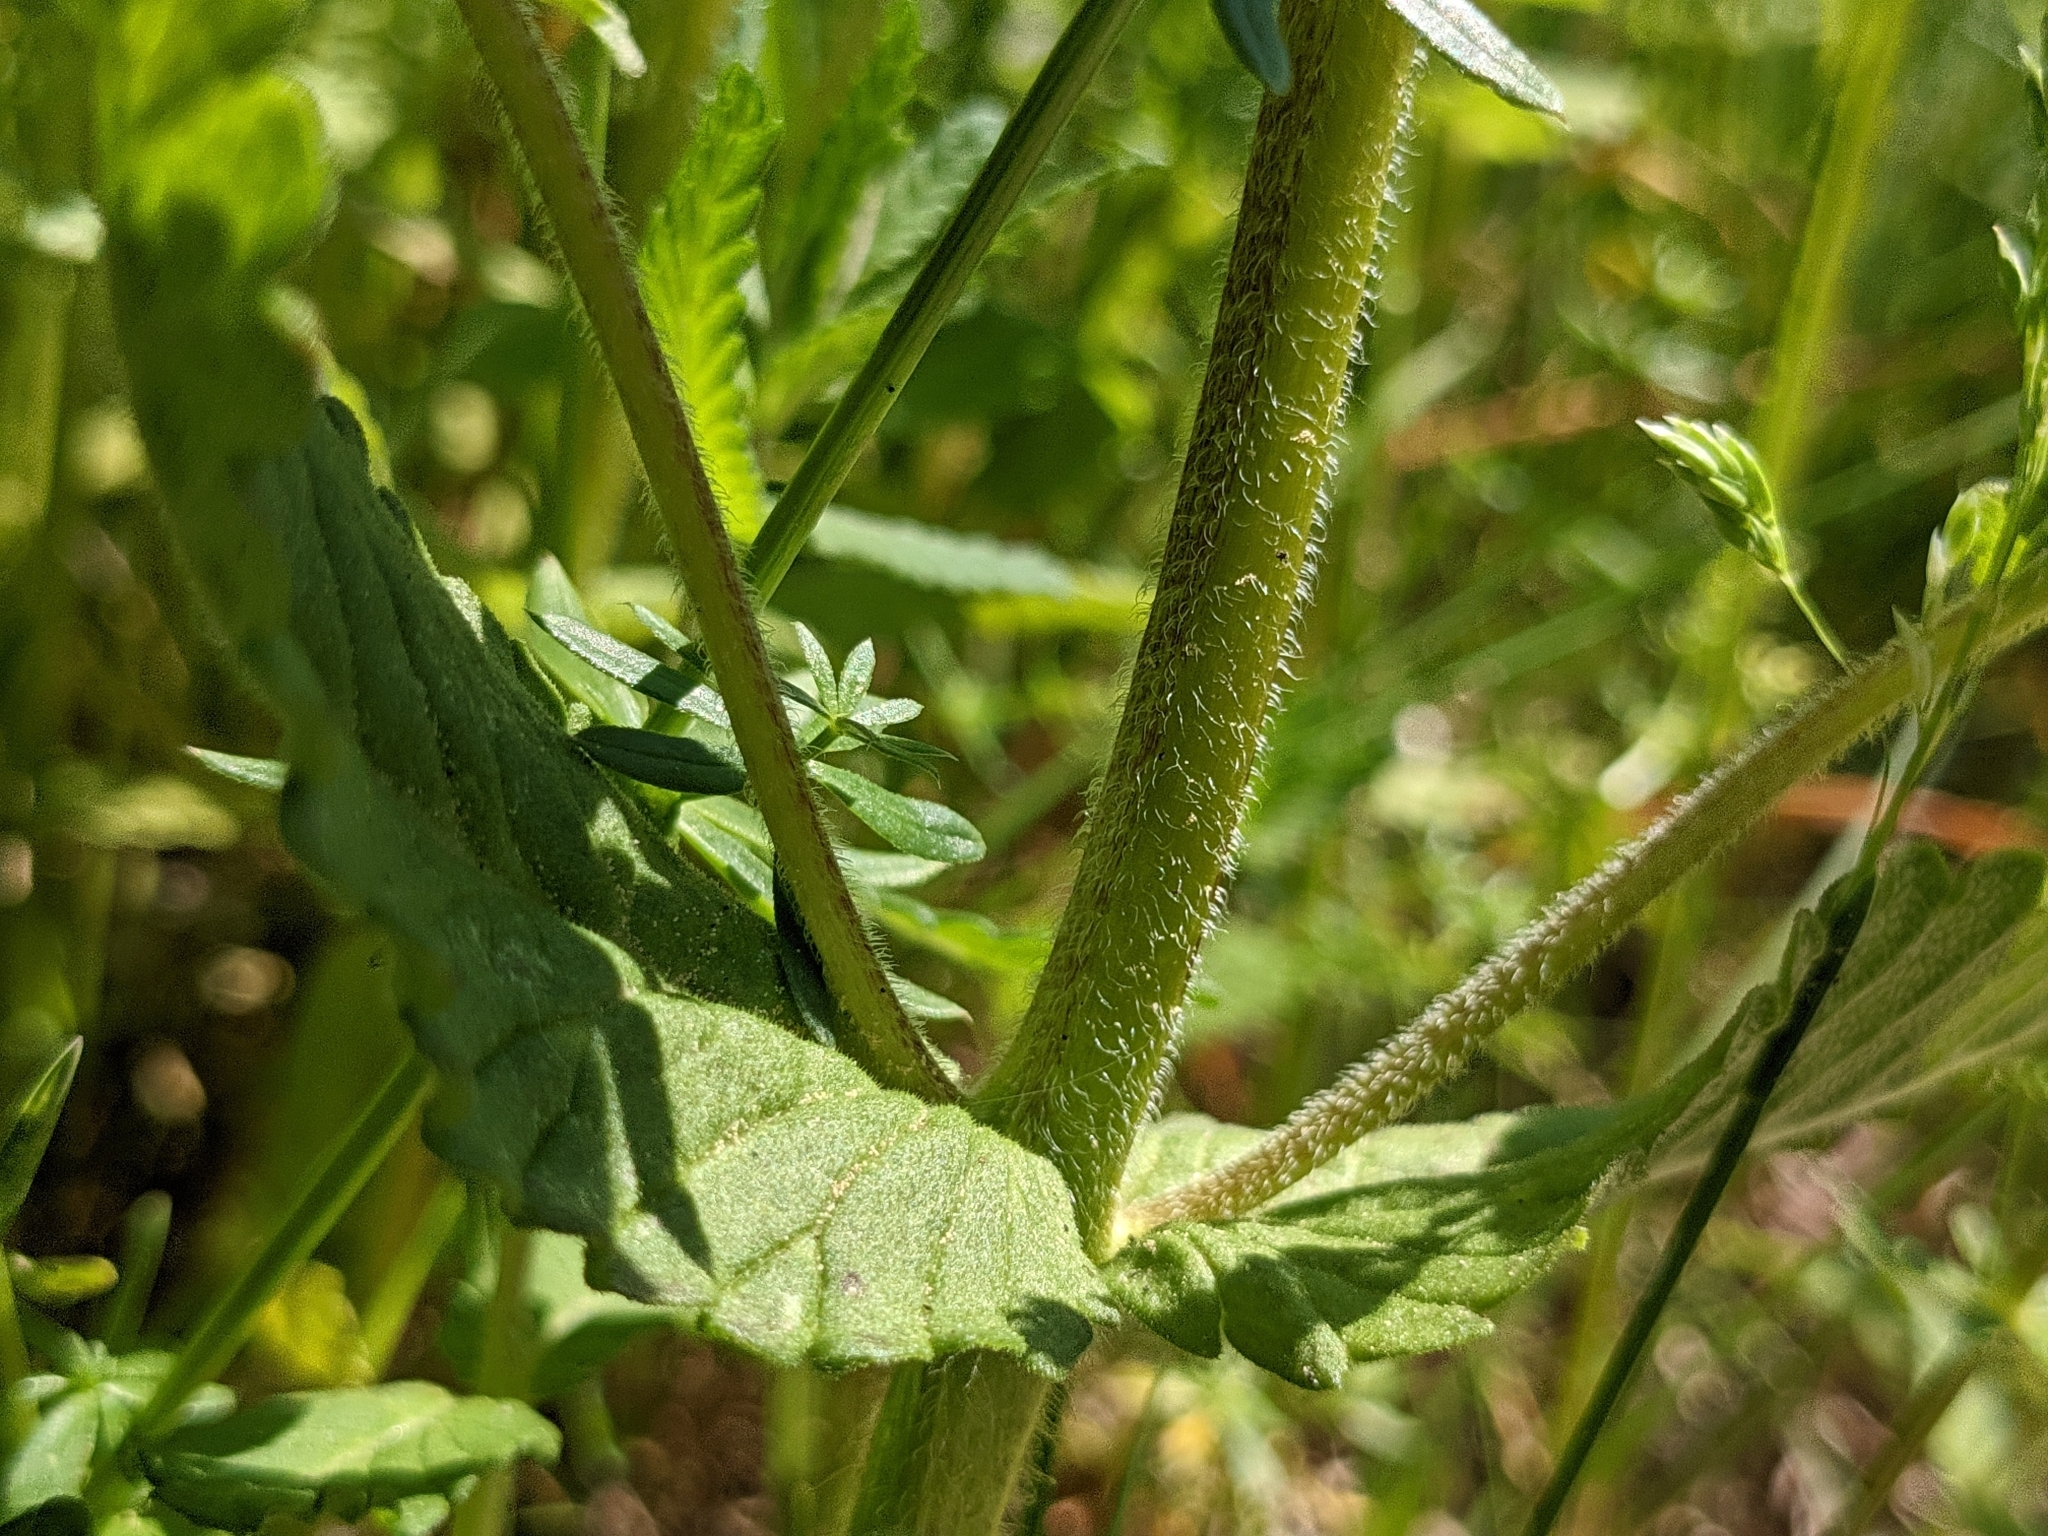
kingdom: Plantae
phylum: Tracheophyta
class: Magnoliopsida
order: Lamiales
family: Orobanchaceae
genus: Rhinanthus
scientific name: Rhinanthus alectorolophus
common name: Greater yellow-rattle
